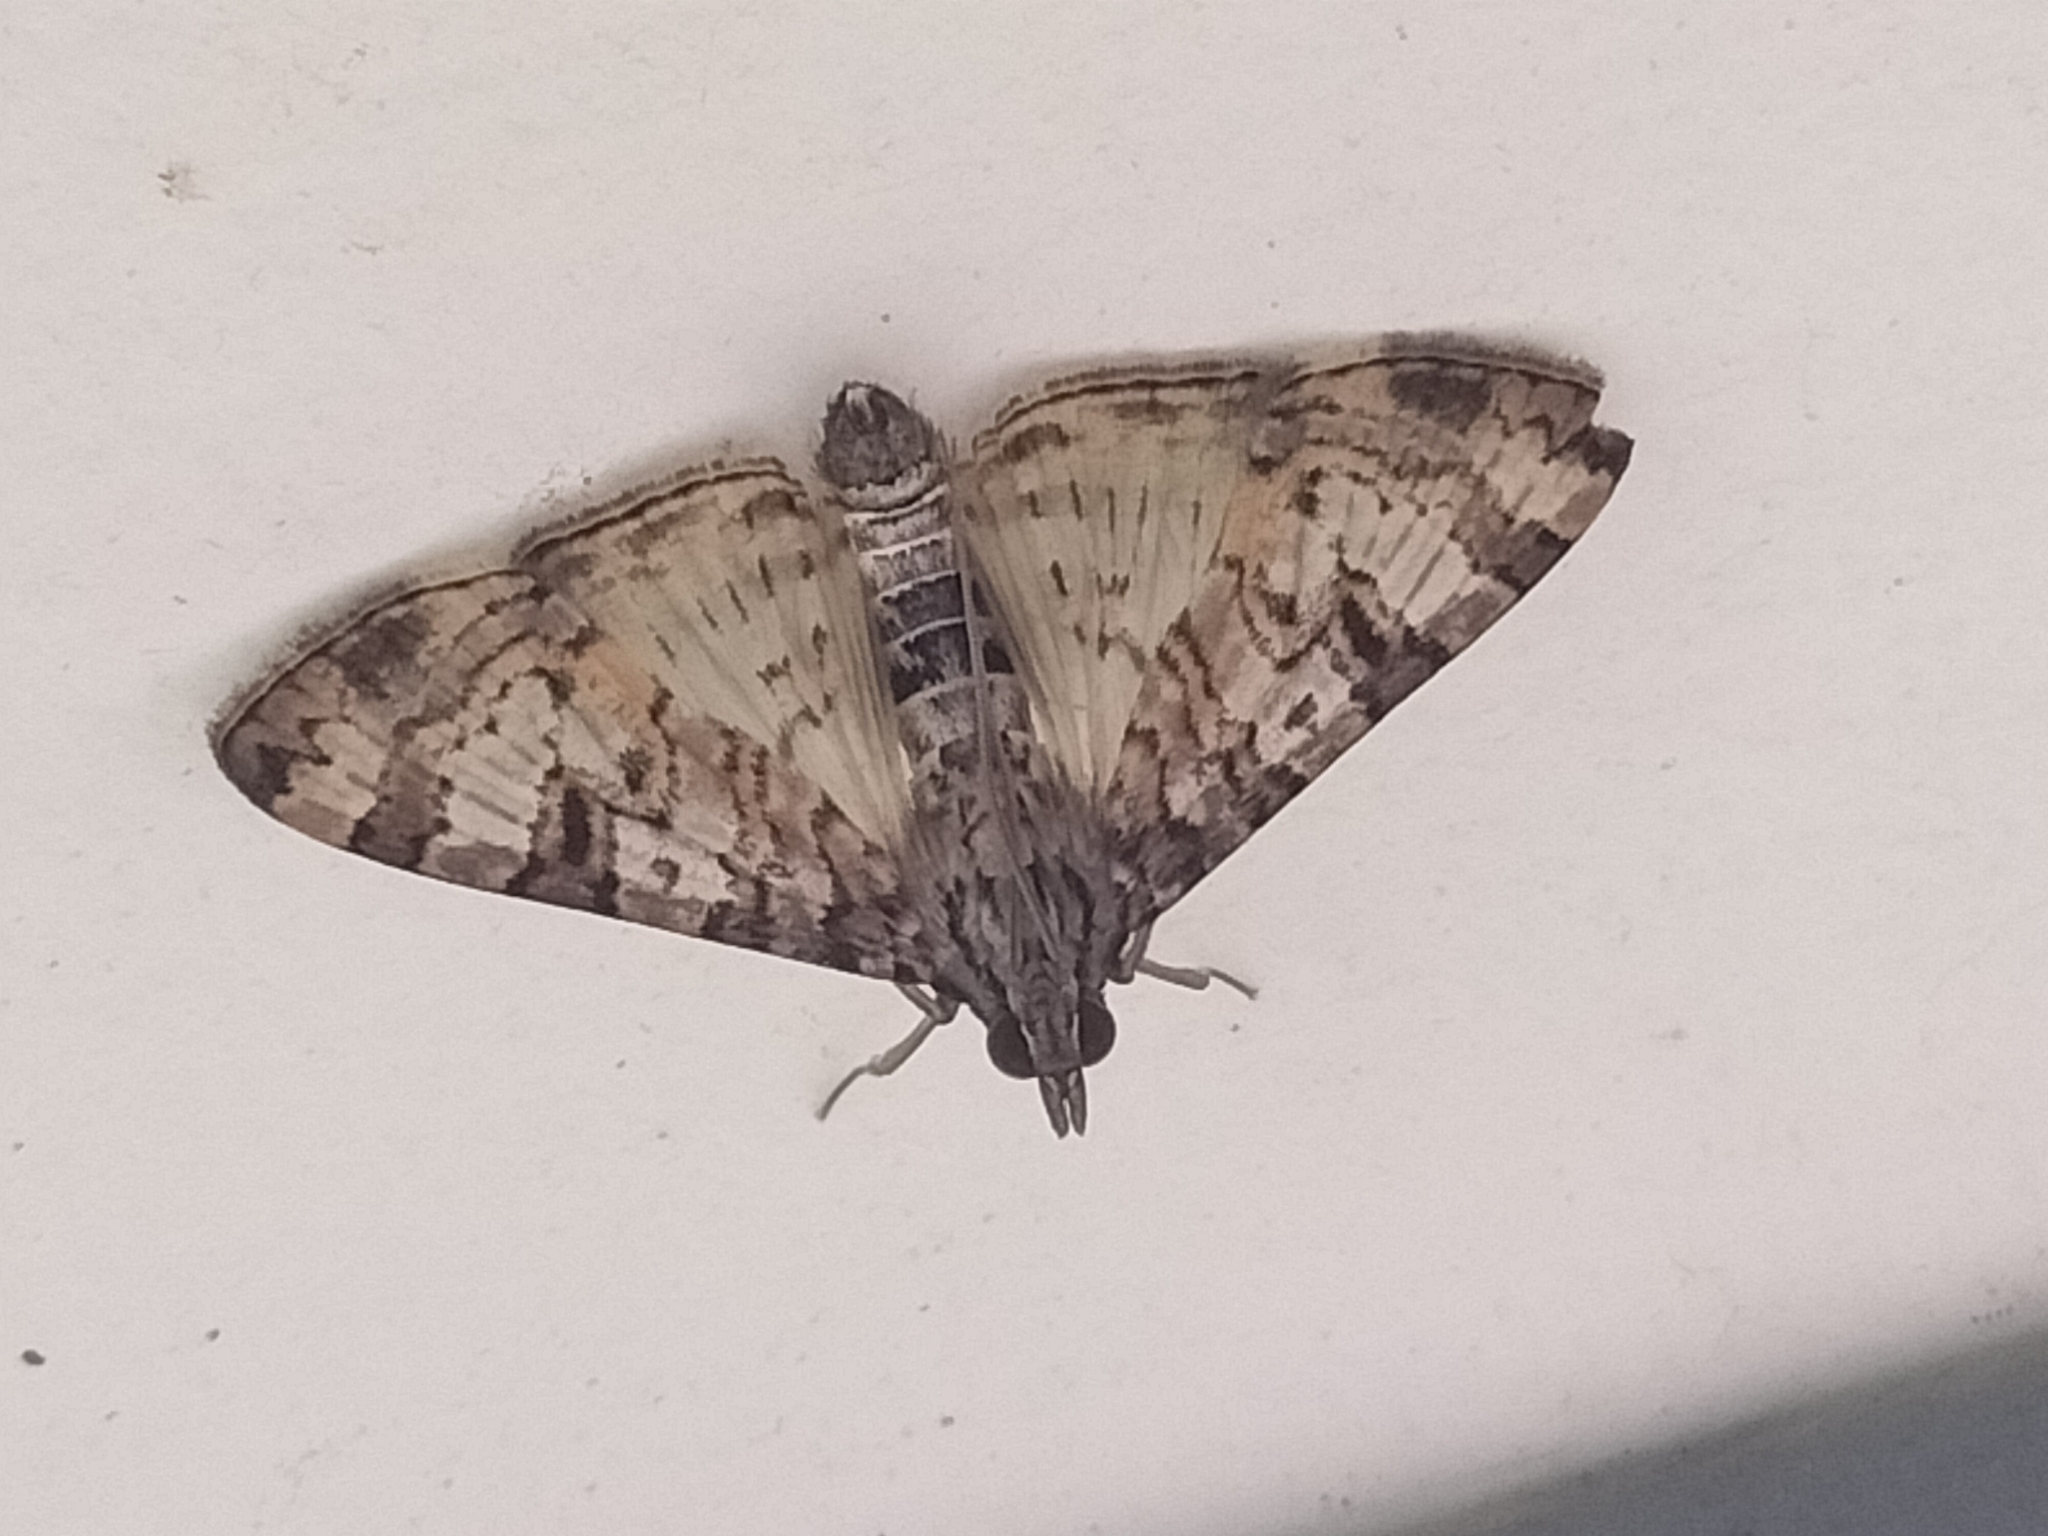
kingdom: Animalia
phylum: Arthropoda
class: Insecta
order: Lepidoptera
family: Crambidae
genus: Dysallacta
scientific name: Dysallacta negatalis
